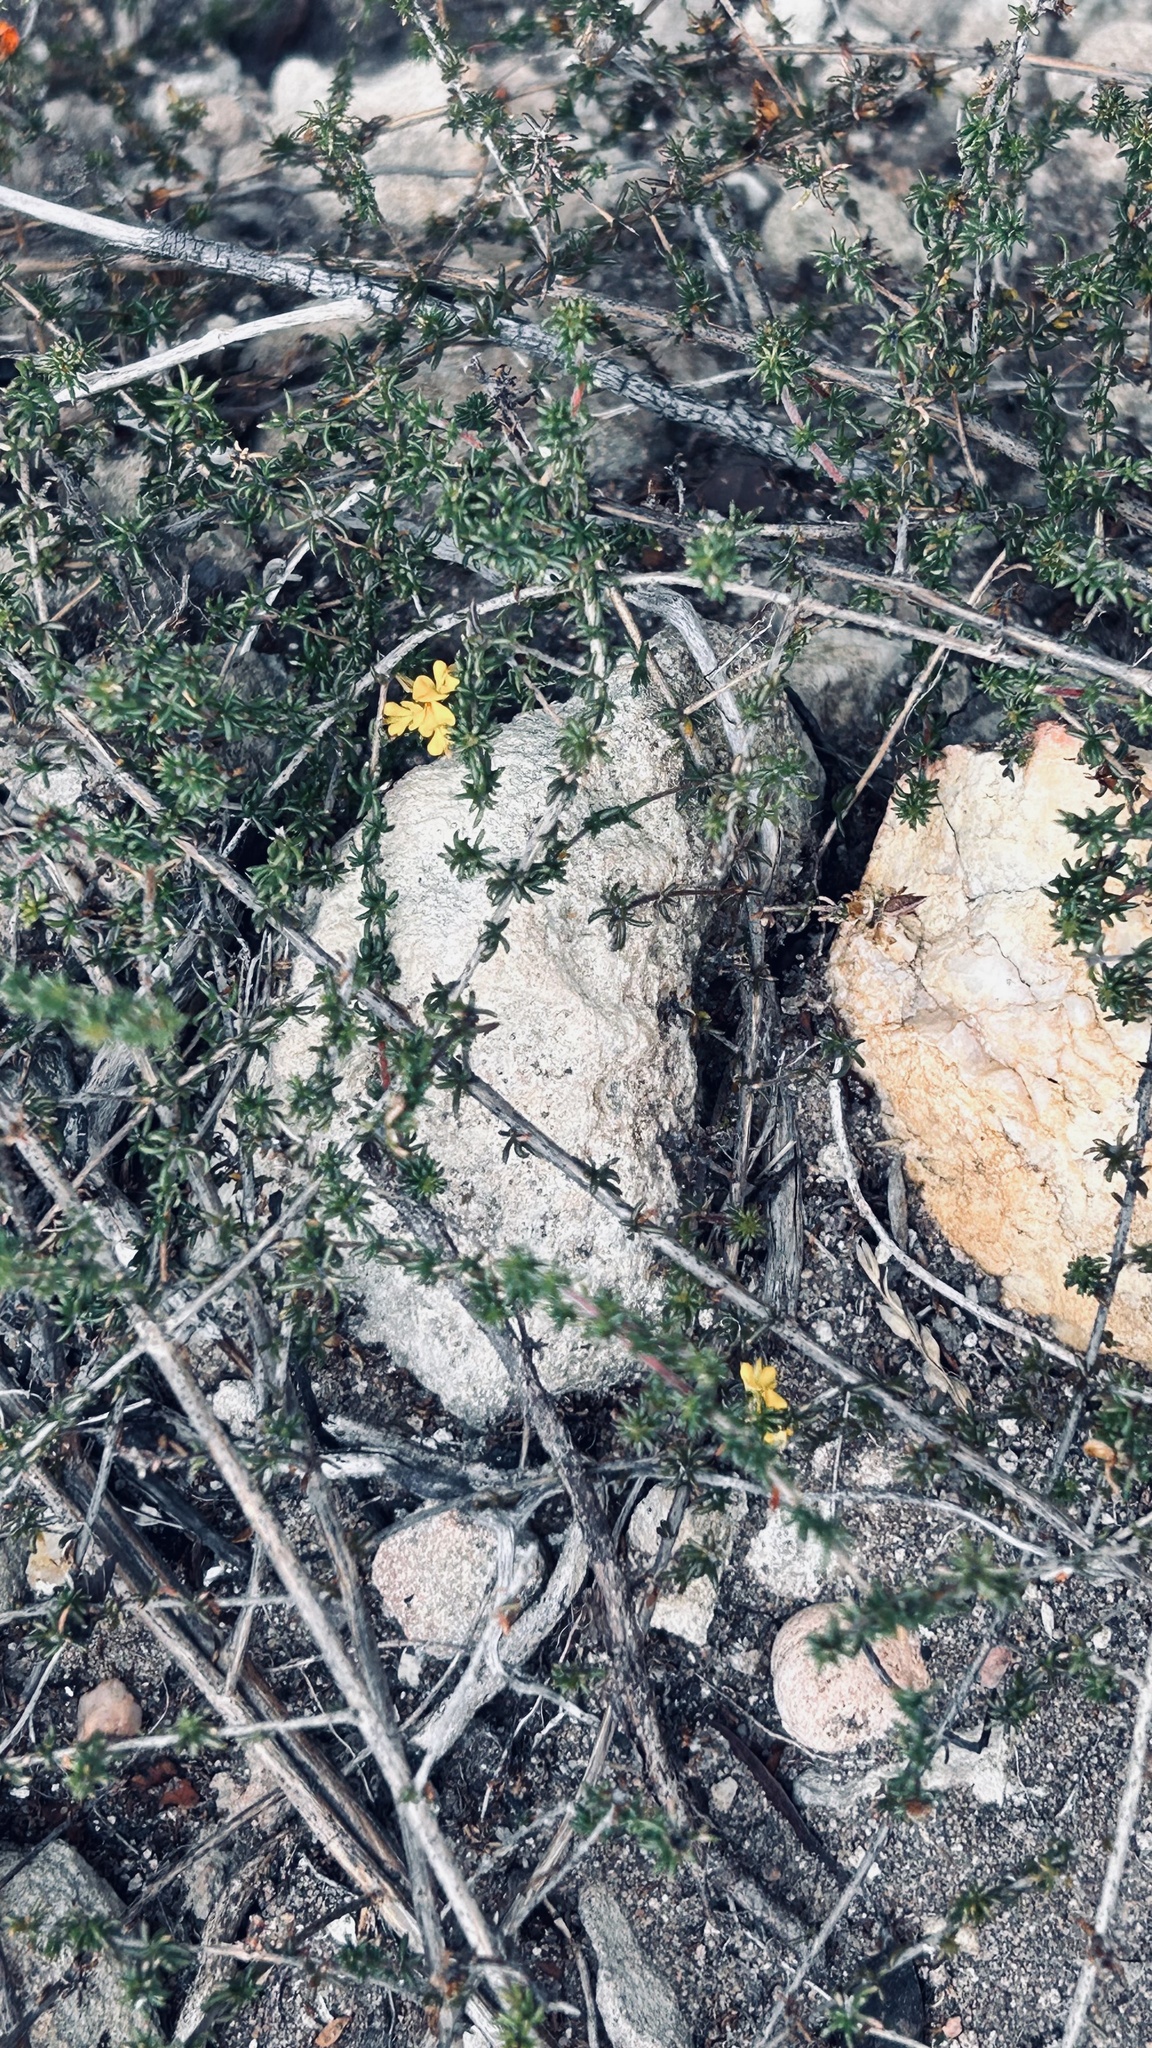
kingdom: Plantae
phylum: Tracheophyta
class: Magnoliopsida
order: Fabales
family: Fabaceae
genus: Aspalathus
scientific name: Aspalathus crassisepala
